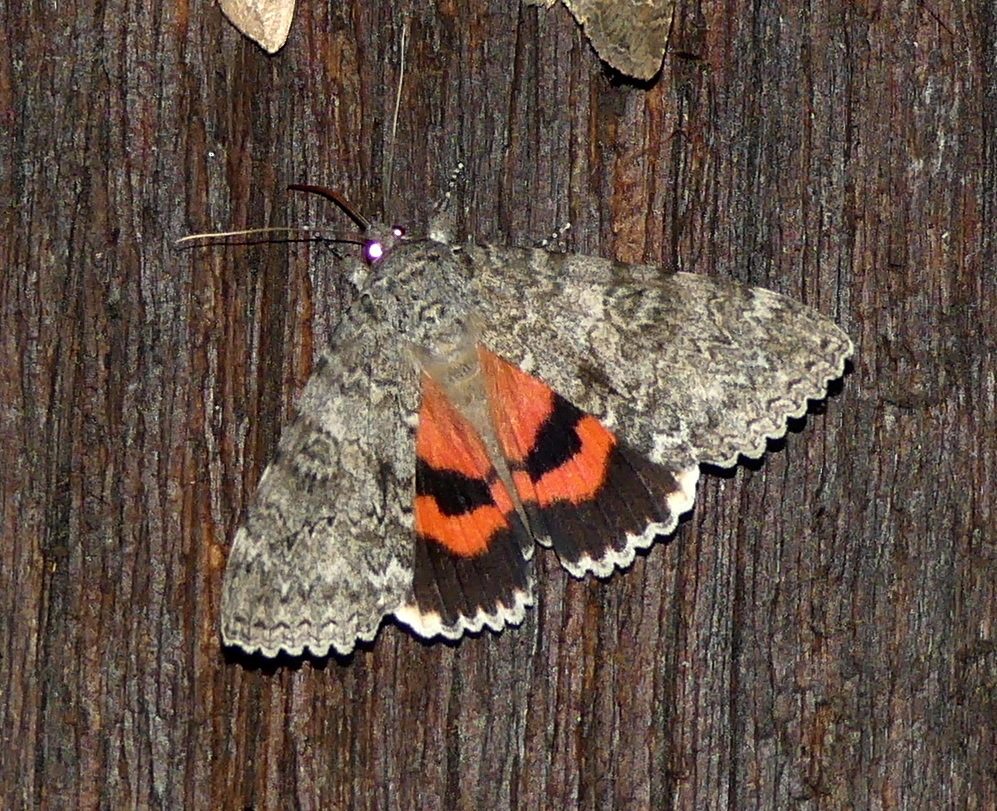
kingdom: Animalia
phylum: Arthropoda
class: Insecta
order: Lepidoptera
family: Erebidae
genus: Catocala
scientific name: Catocala unijuga
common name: Once-married underwing
